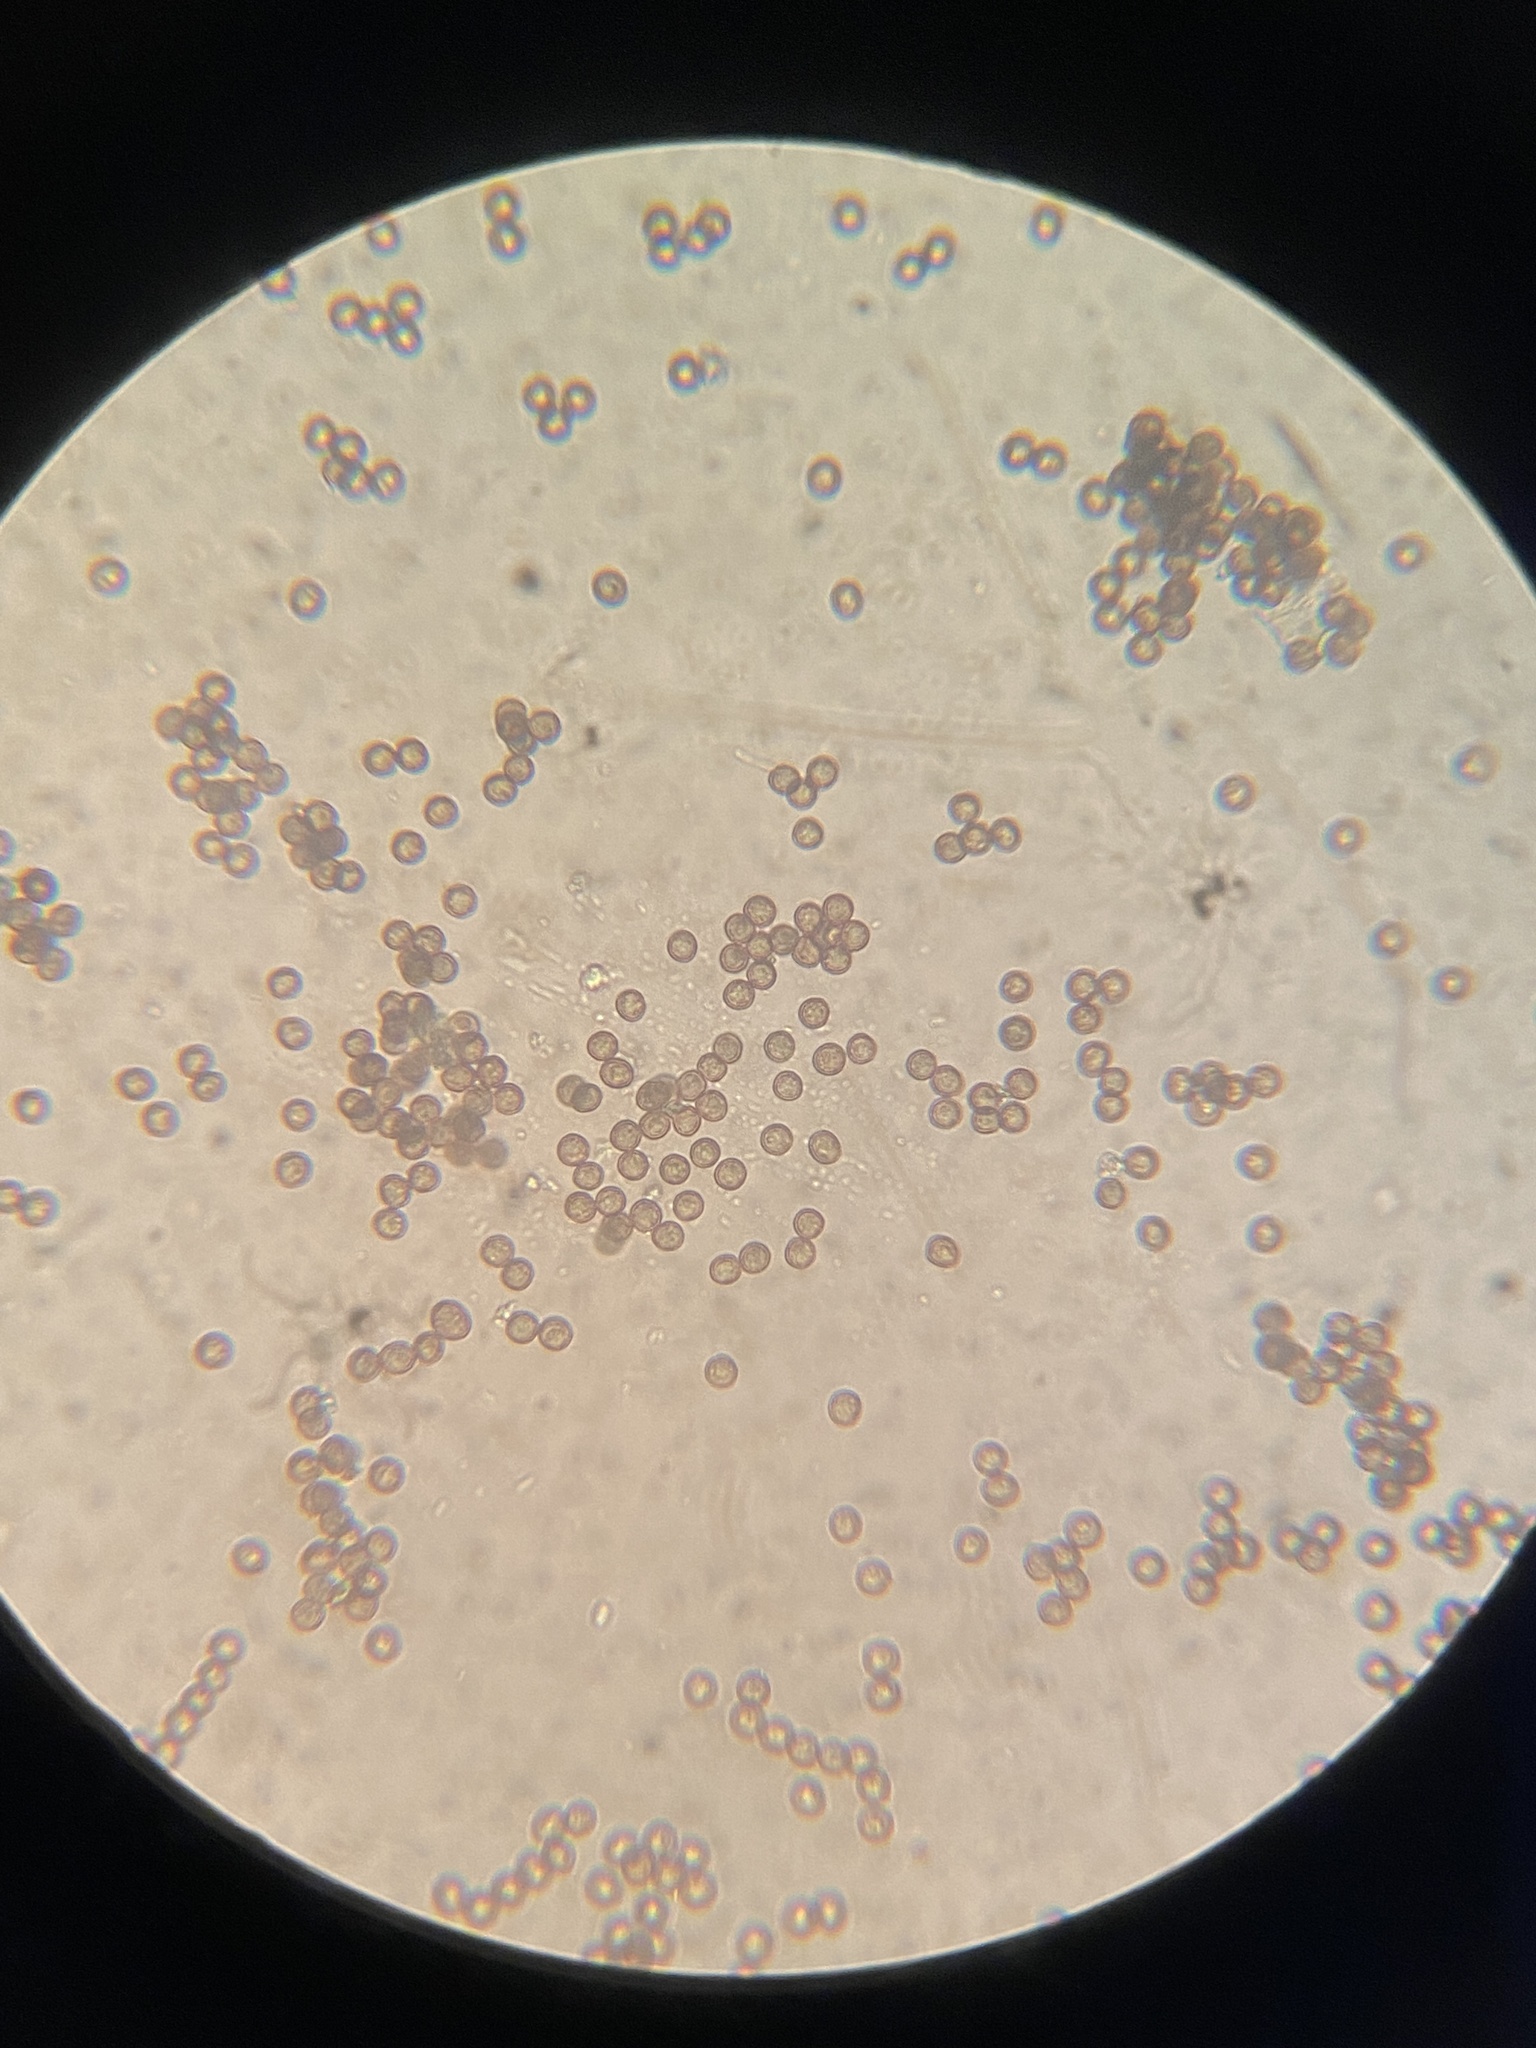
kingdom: Protozoa
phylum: Mycetozoa
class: Myxomycetes
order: Physarales
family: Didymiaceae
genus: Didymium
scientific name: Didymium minus
